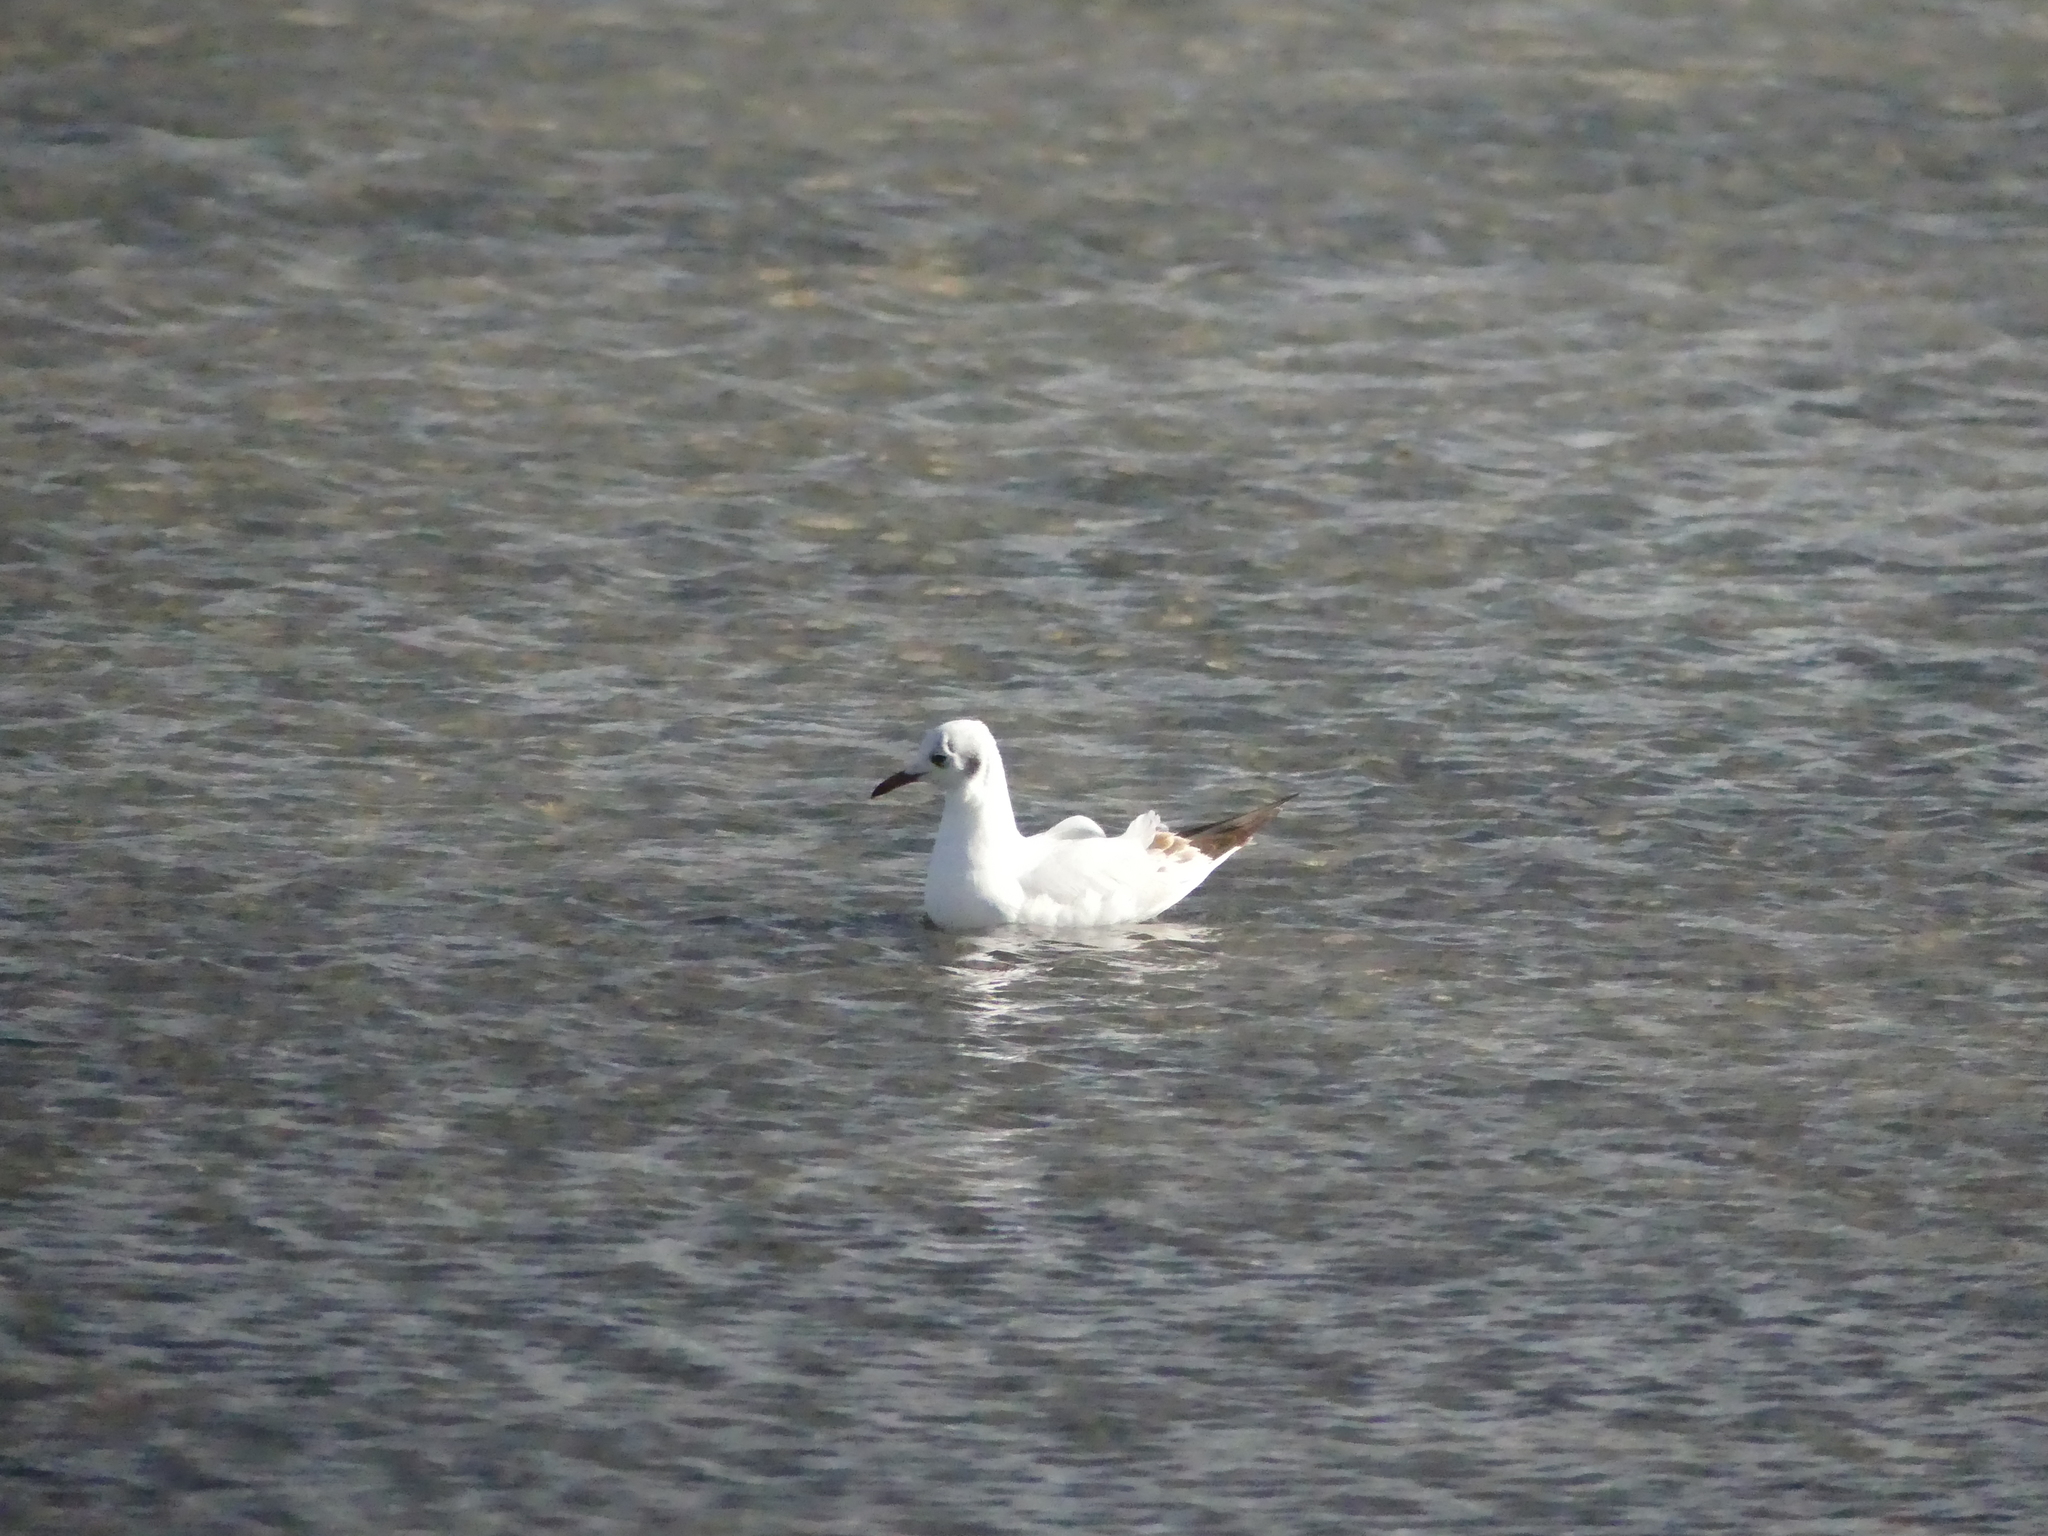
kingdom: Animalia
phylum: Chordata
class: Aves
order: Charadriiformes
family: Laridae
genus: Chroicocephalus
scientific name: Chroicocephalus ridibundus
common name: Black-headed gull
